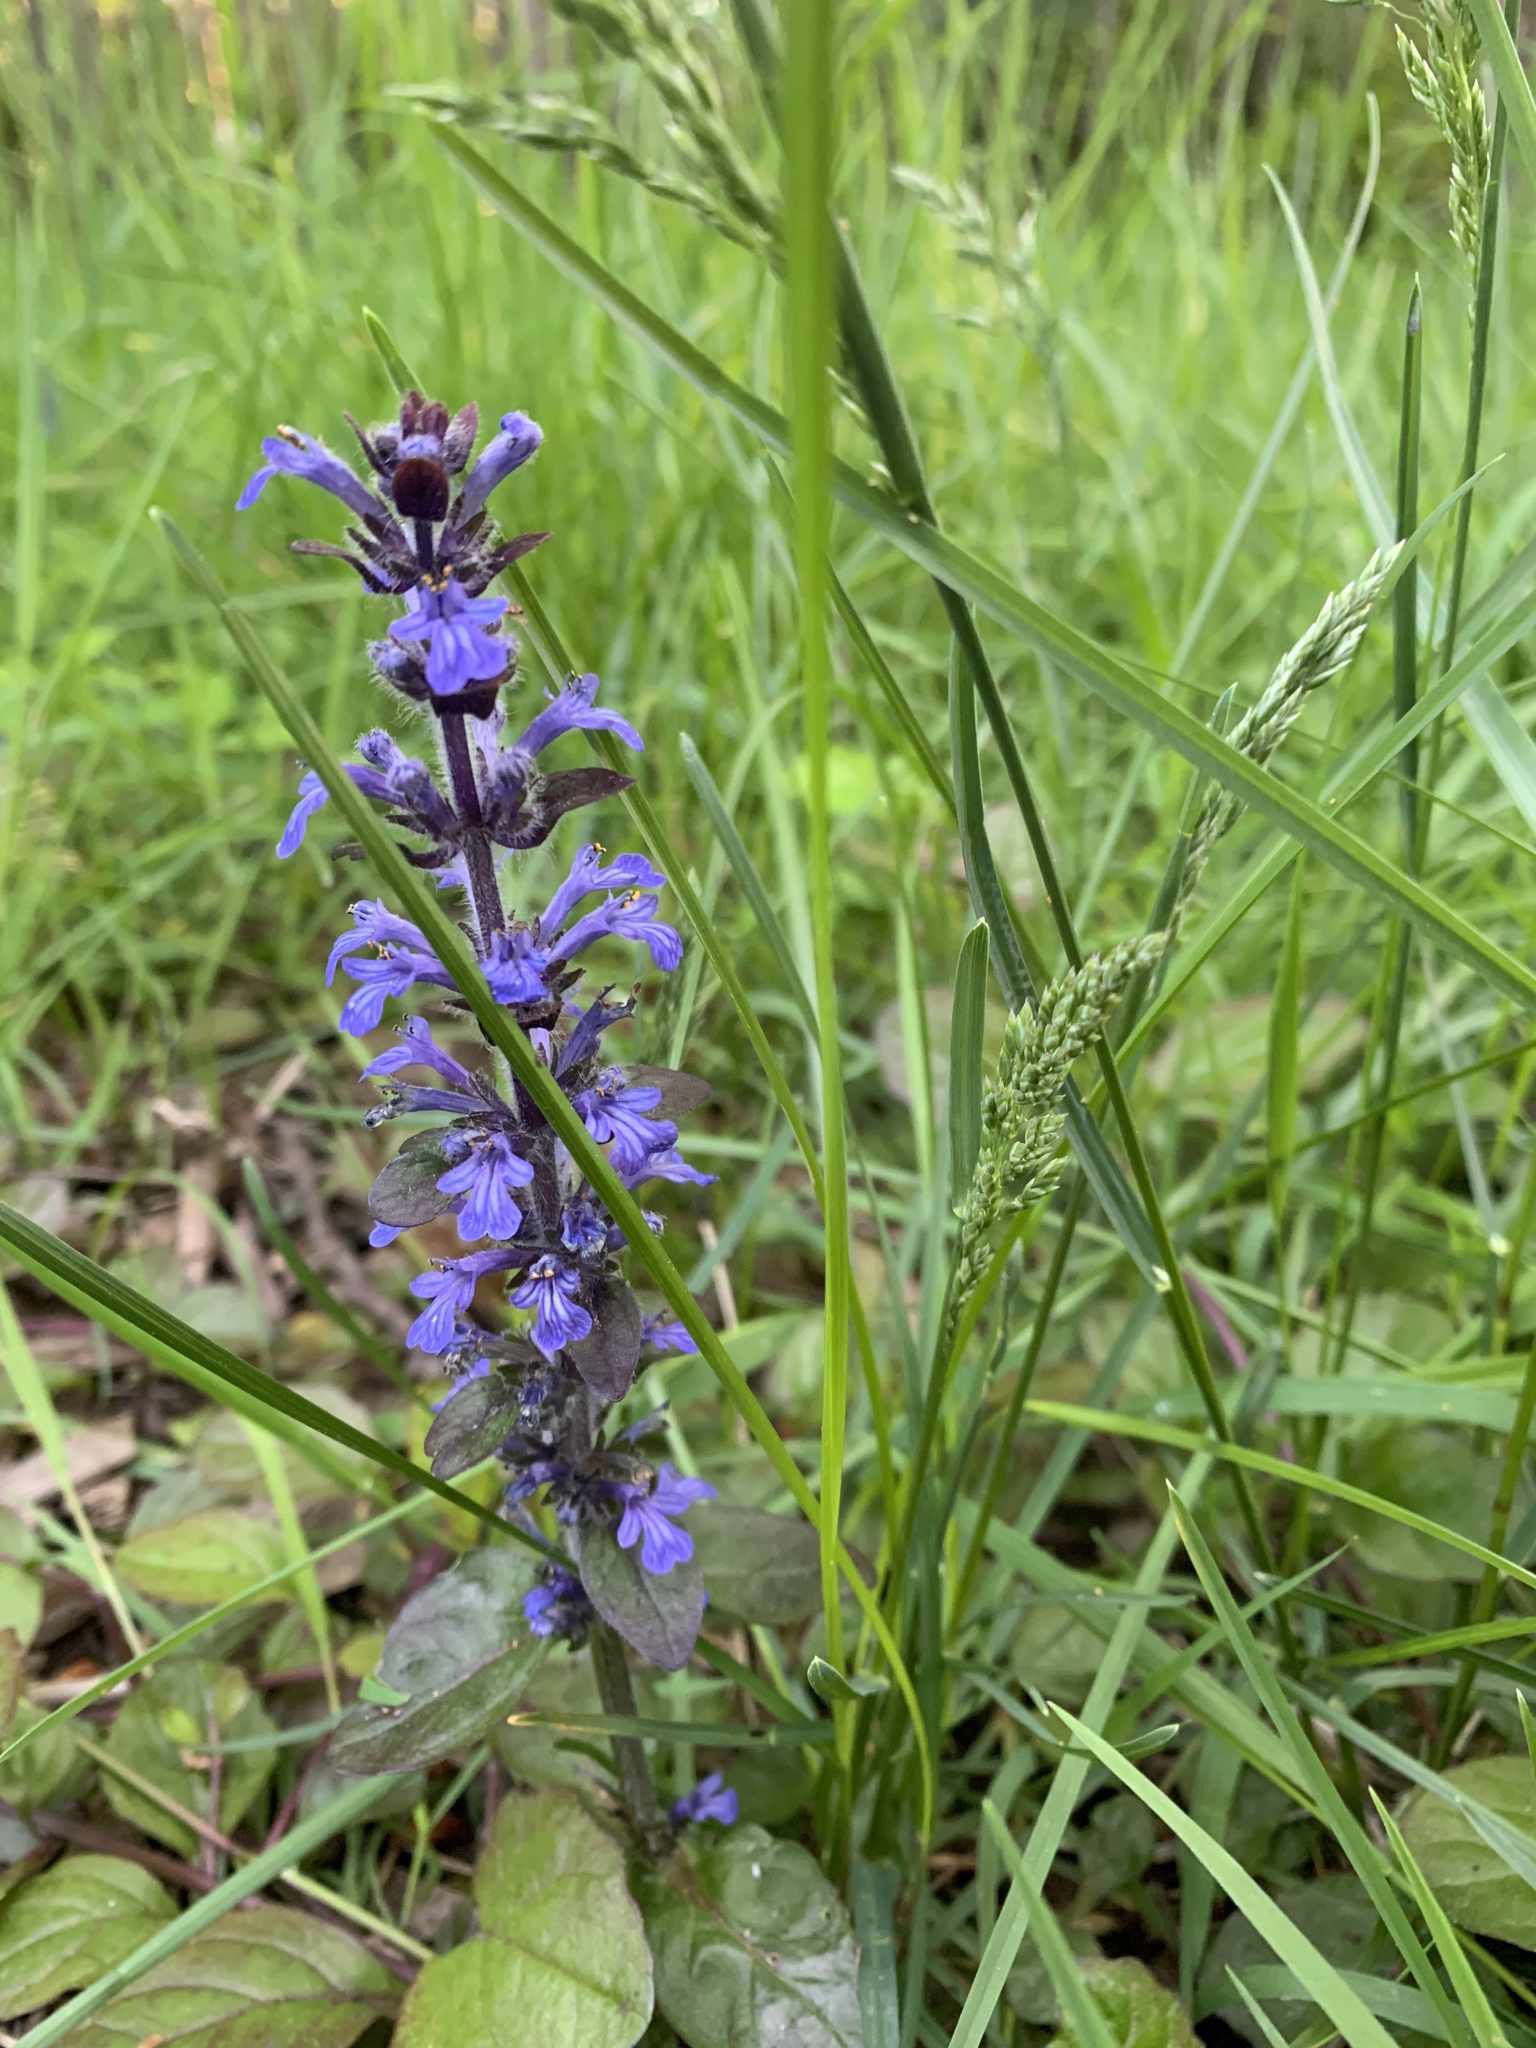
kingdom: Plantae
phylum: Tracheophyta
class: Magnoliopsida
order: Lamiales
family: Lamiaceae
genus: Ajuga
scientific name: Ajuga reptans
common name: Bugle
